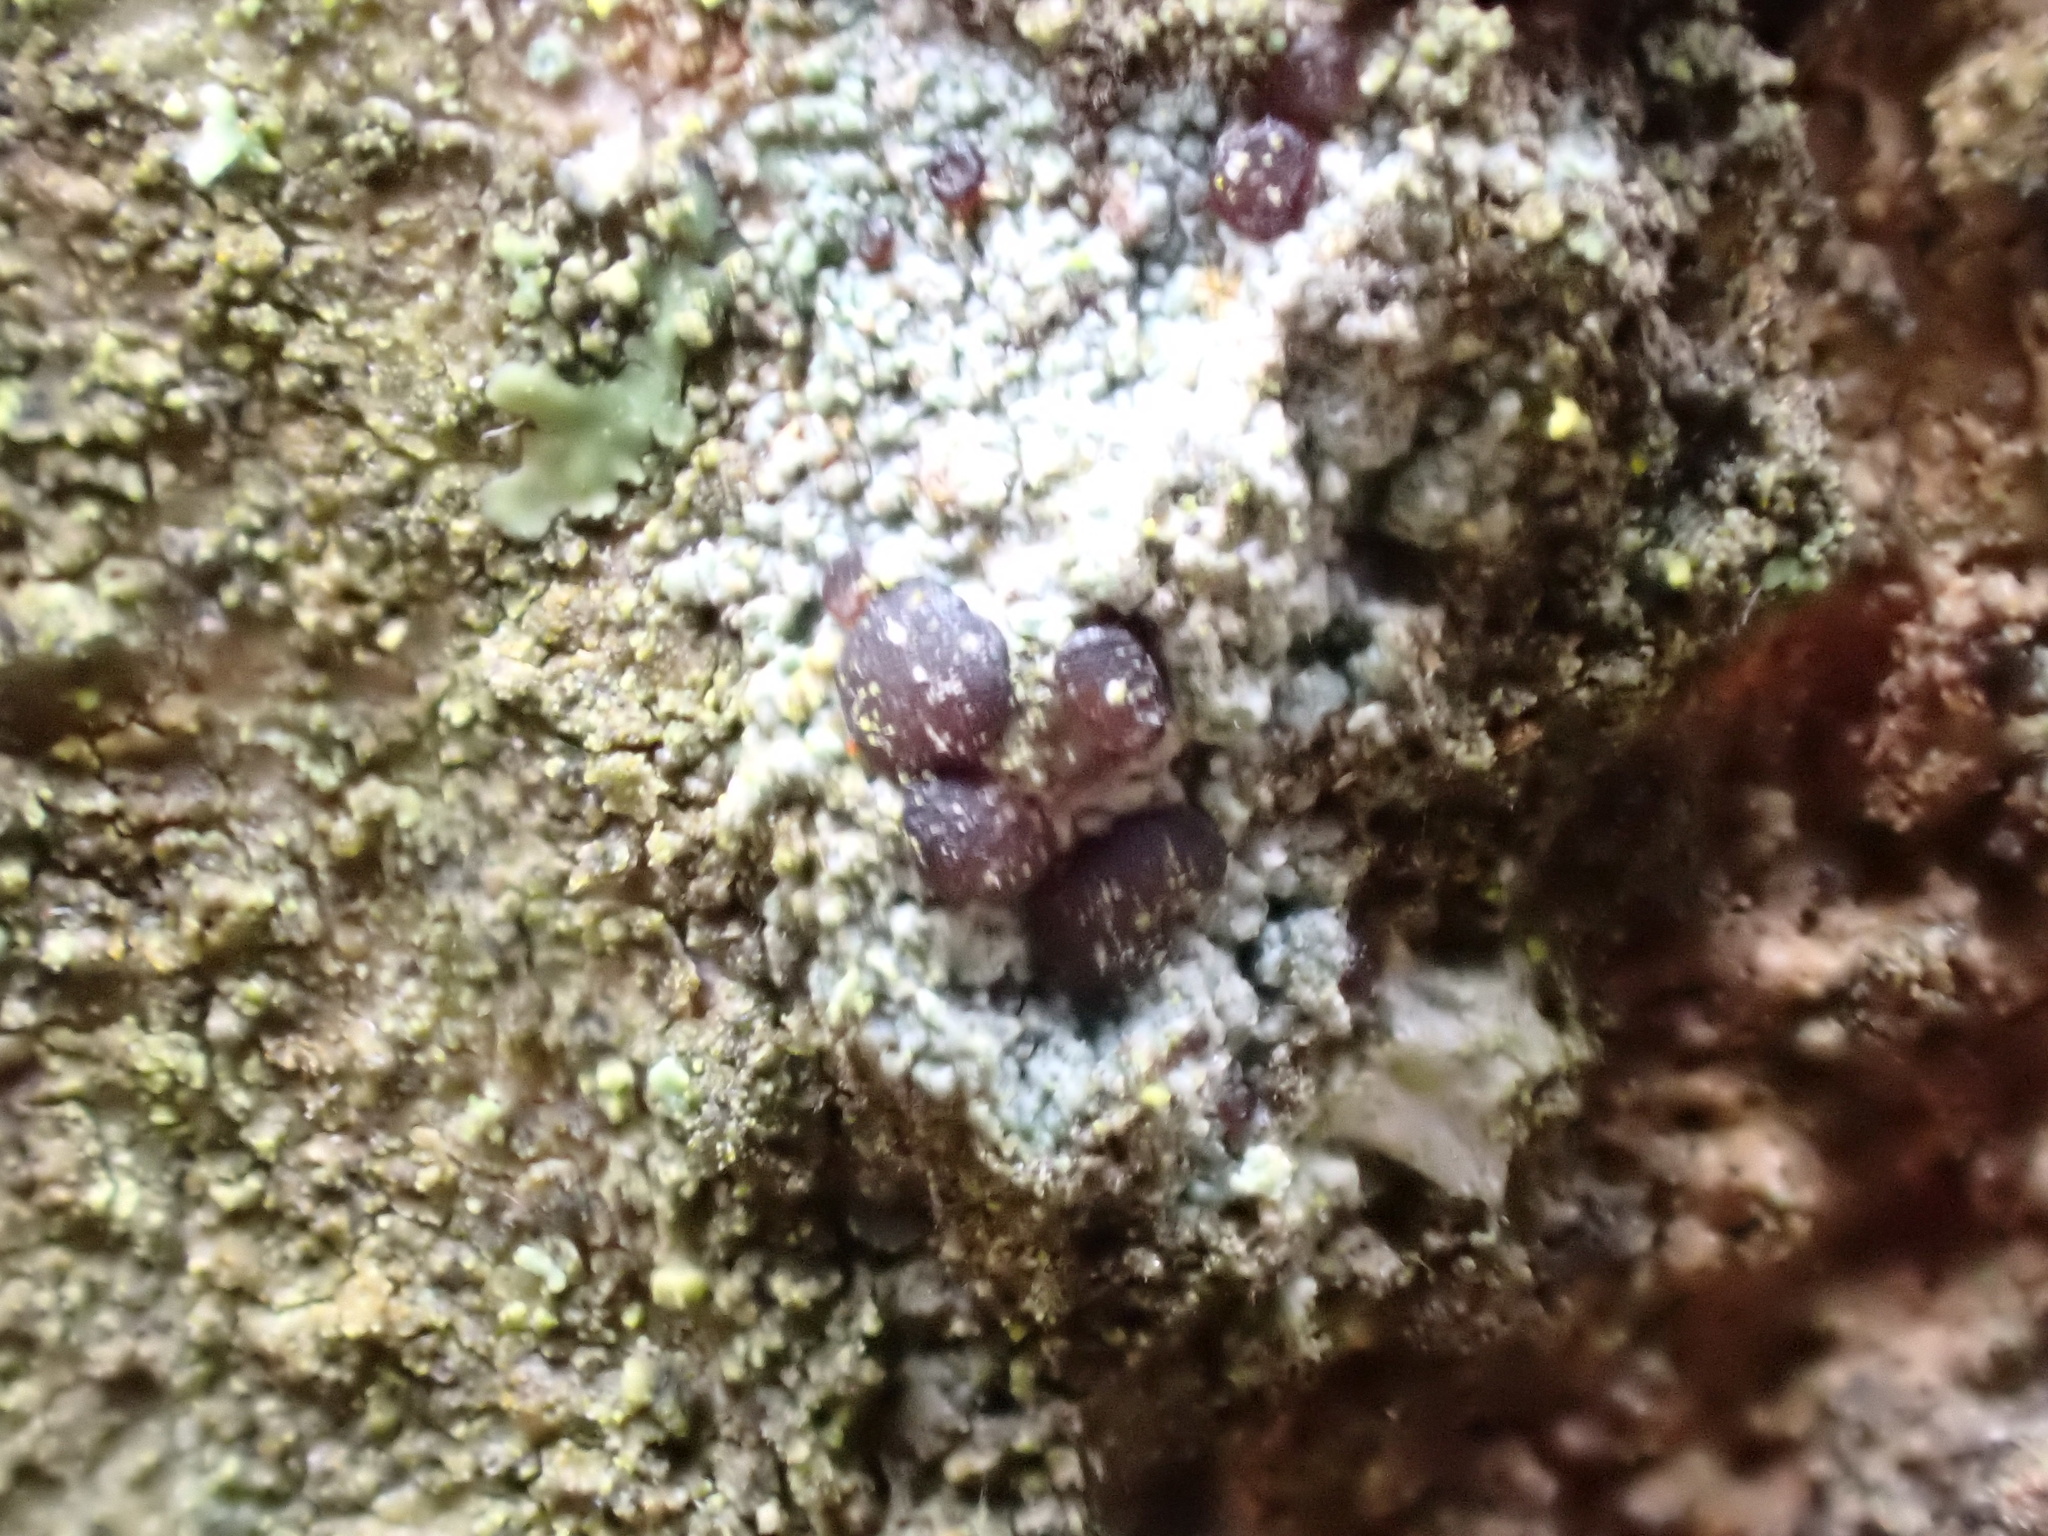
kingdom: Fungi
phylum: Ascomycota
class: Lecanoromycetes
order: Lecanorales
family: Ramalinaceae
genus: Bacidia
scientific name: Bacidia laurocerasi
